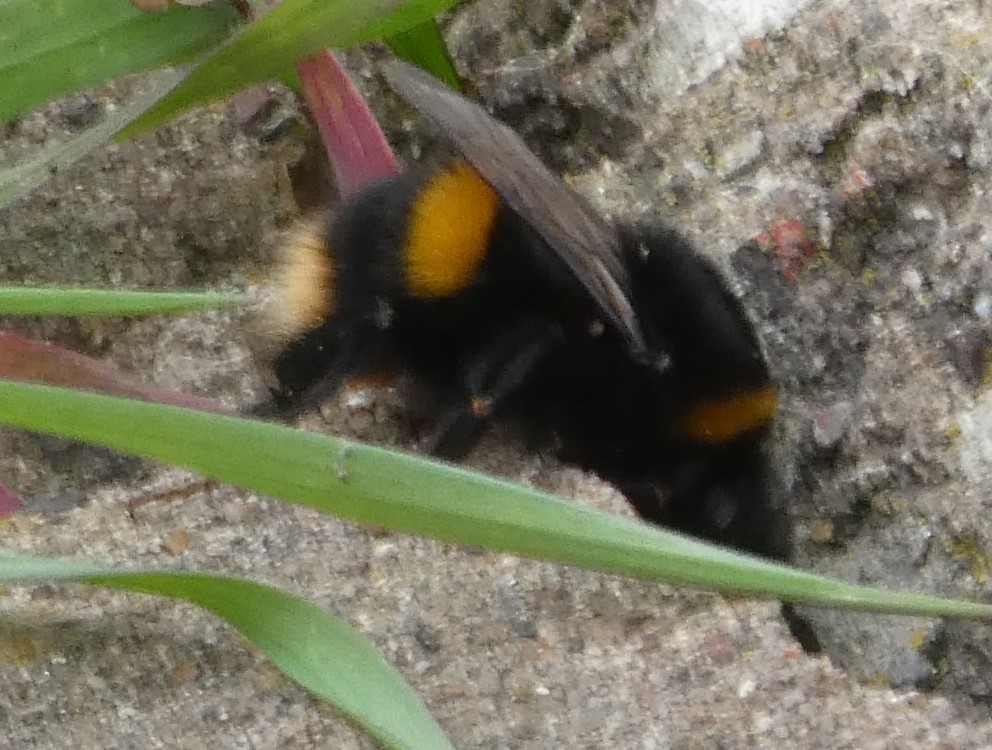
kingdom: Animalia
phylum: Arthropoda
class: Insecta
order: Hymenoptera
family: Apidae
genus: Bombus
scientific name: Bombus terrestris
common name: Buff-tailed bumblebee
